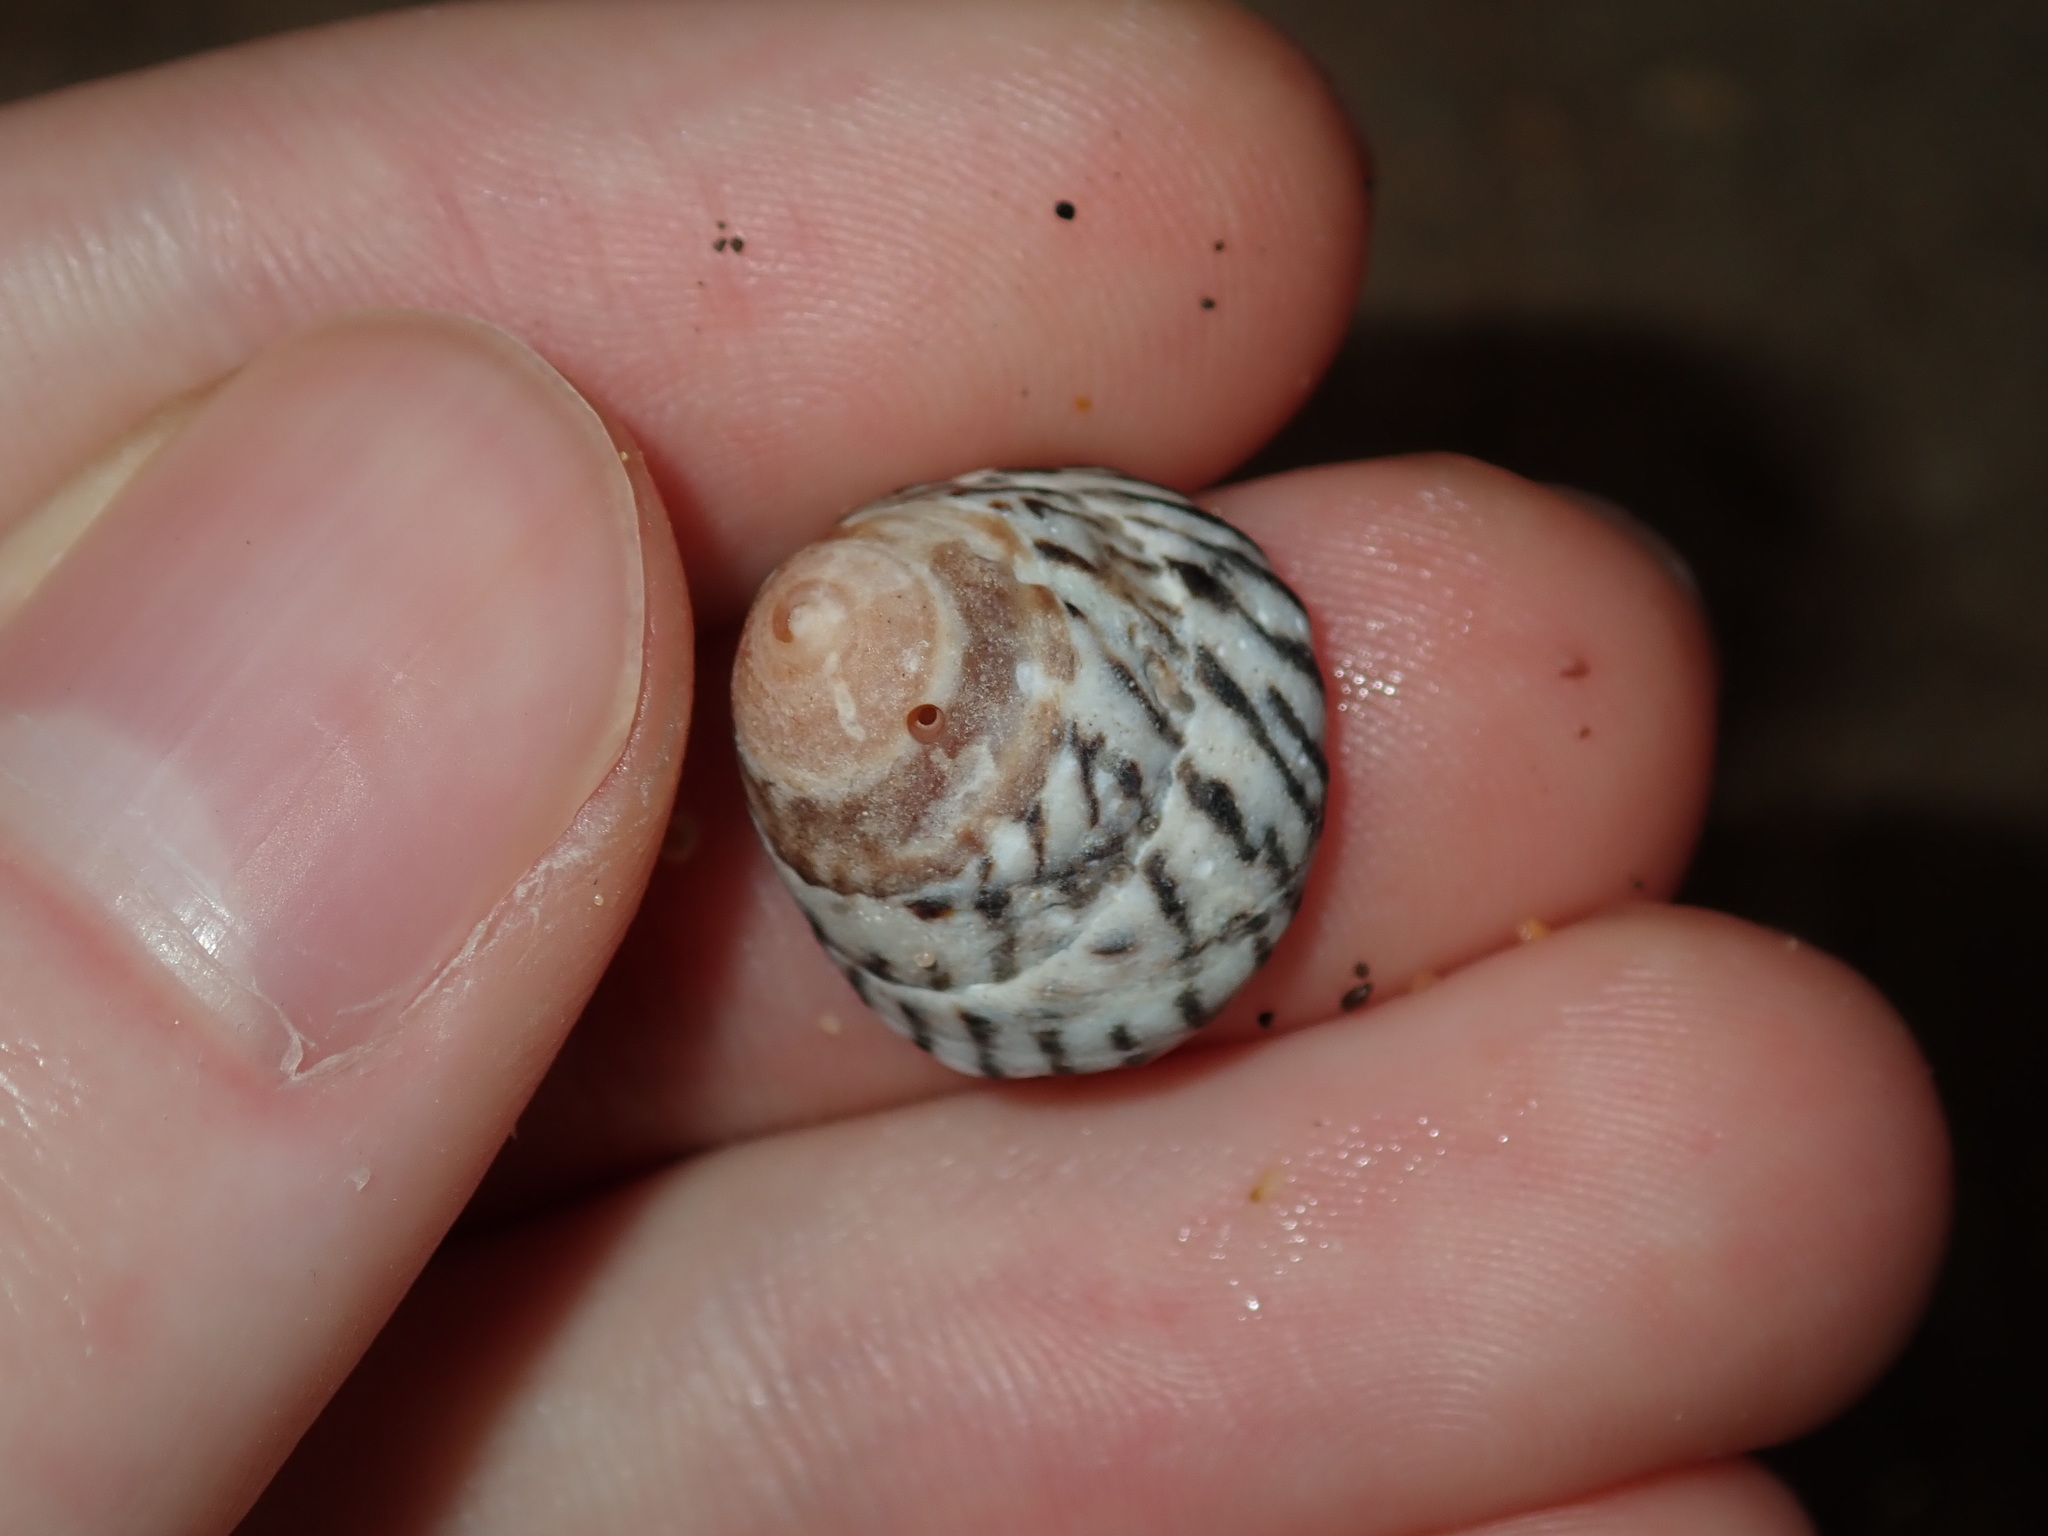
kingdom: Animalia
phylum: Mollusca
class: Gastropoda
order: Littorinimorpha
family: Littorinidae
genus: Bembicium
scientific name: Bembicium nanum
